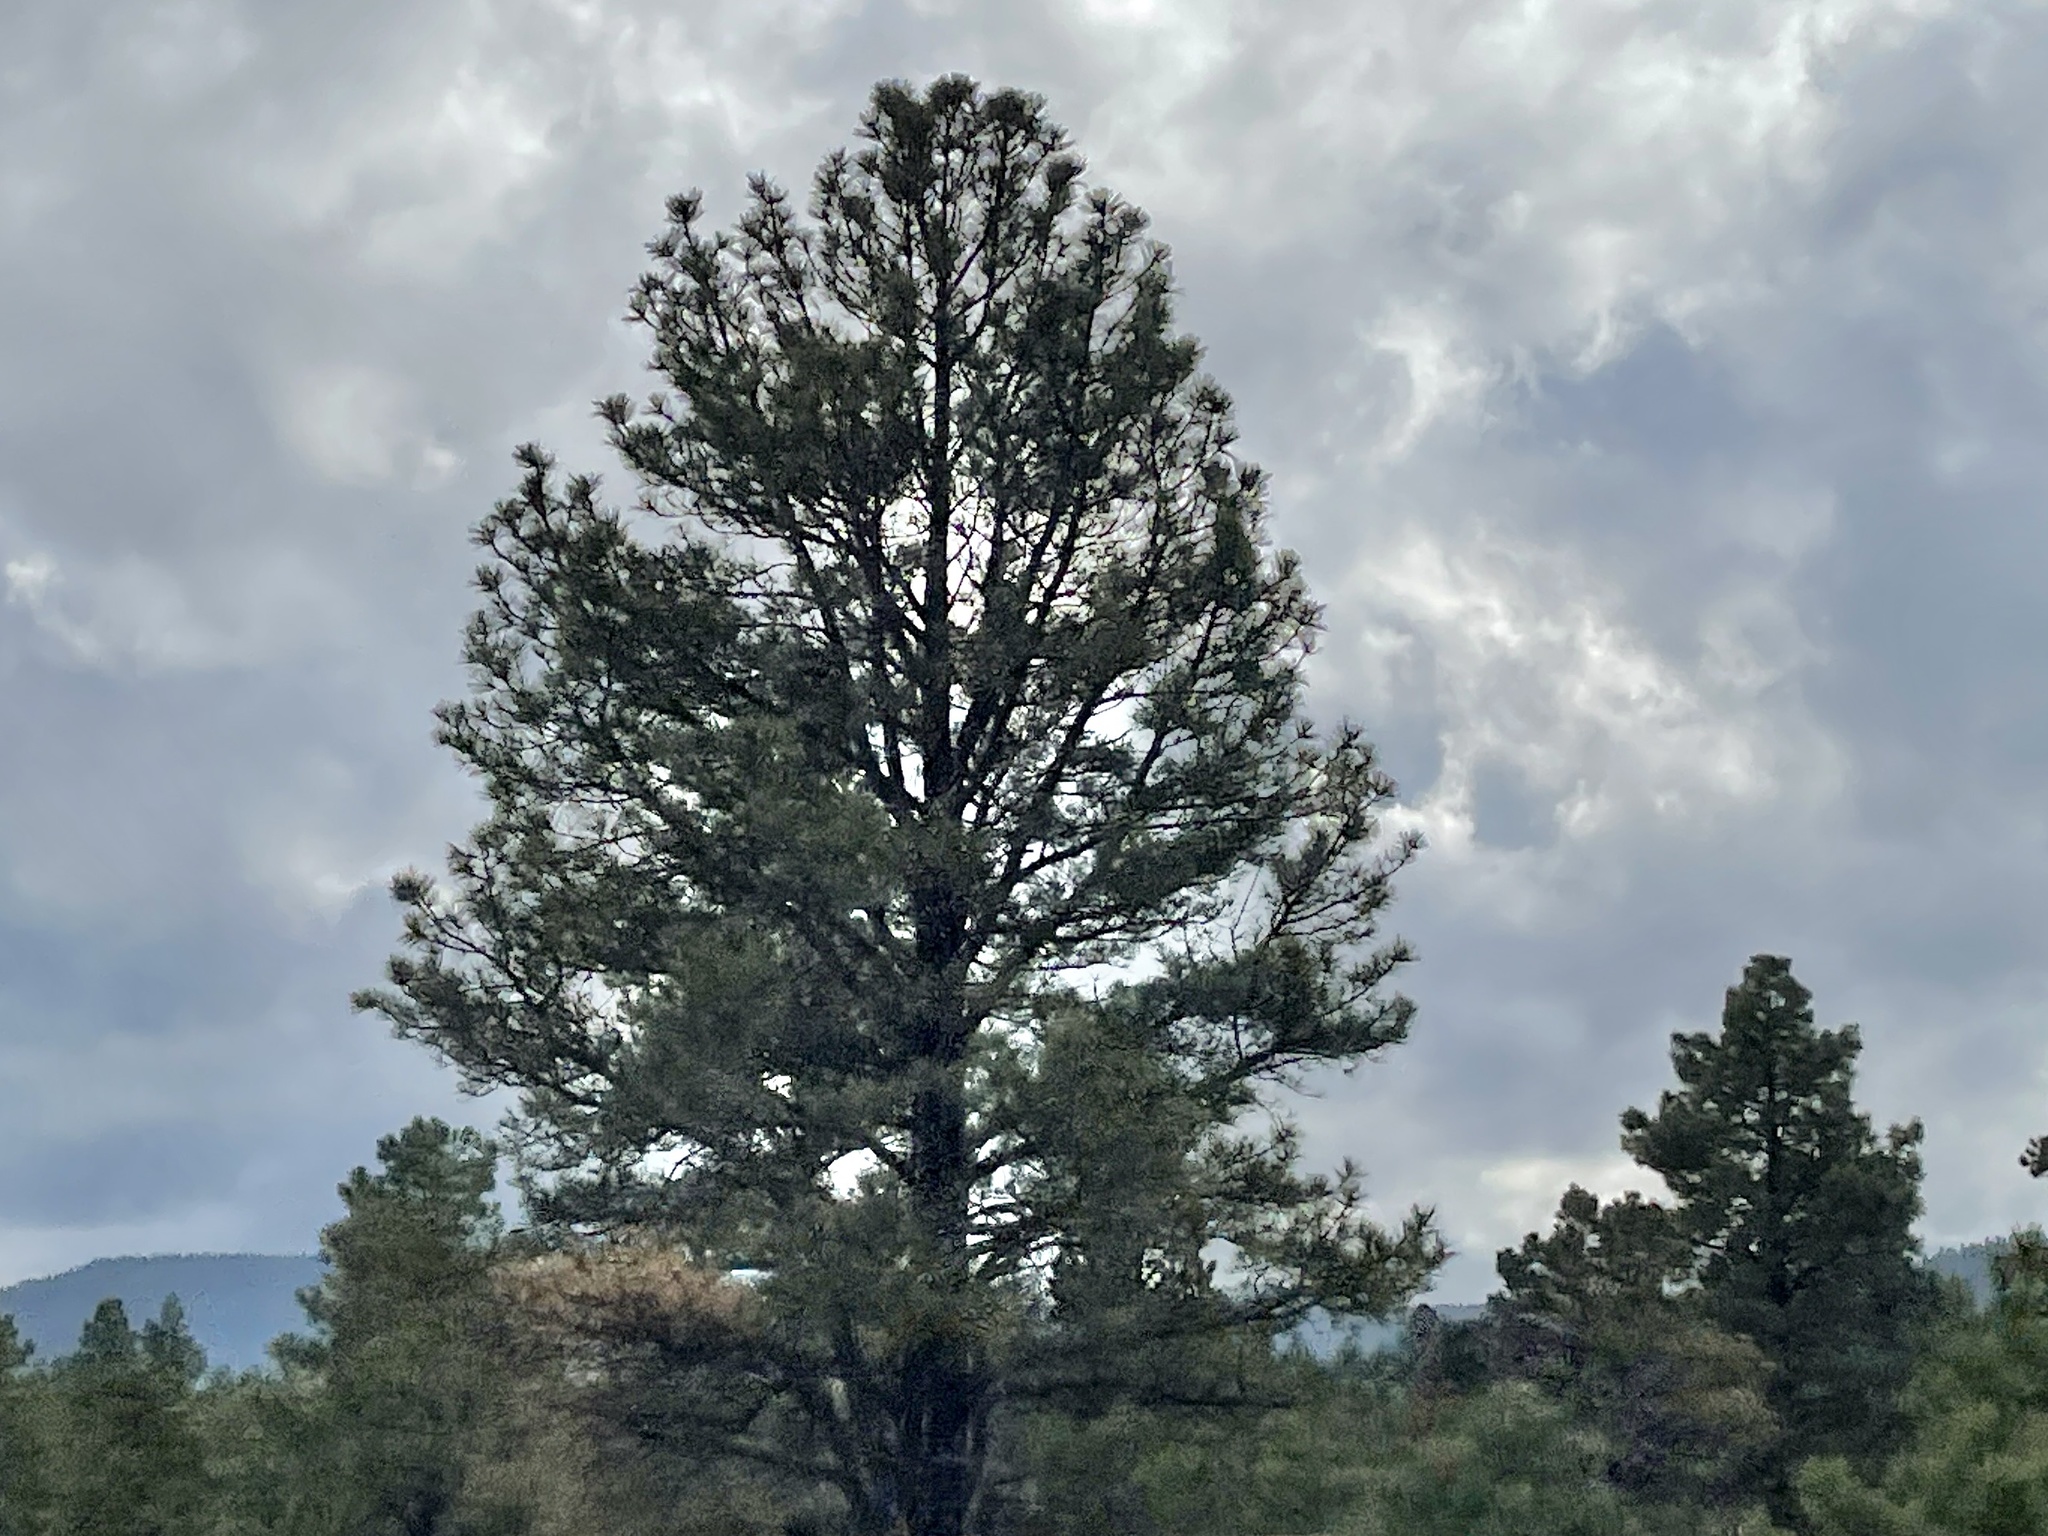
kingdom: Plantae
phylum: Tracheophyta
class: Pinopsida
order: Pinales
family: Pinaceae
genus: Pinus
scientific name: Pinus ponderosa
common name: Western yellow-pine
